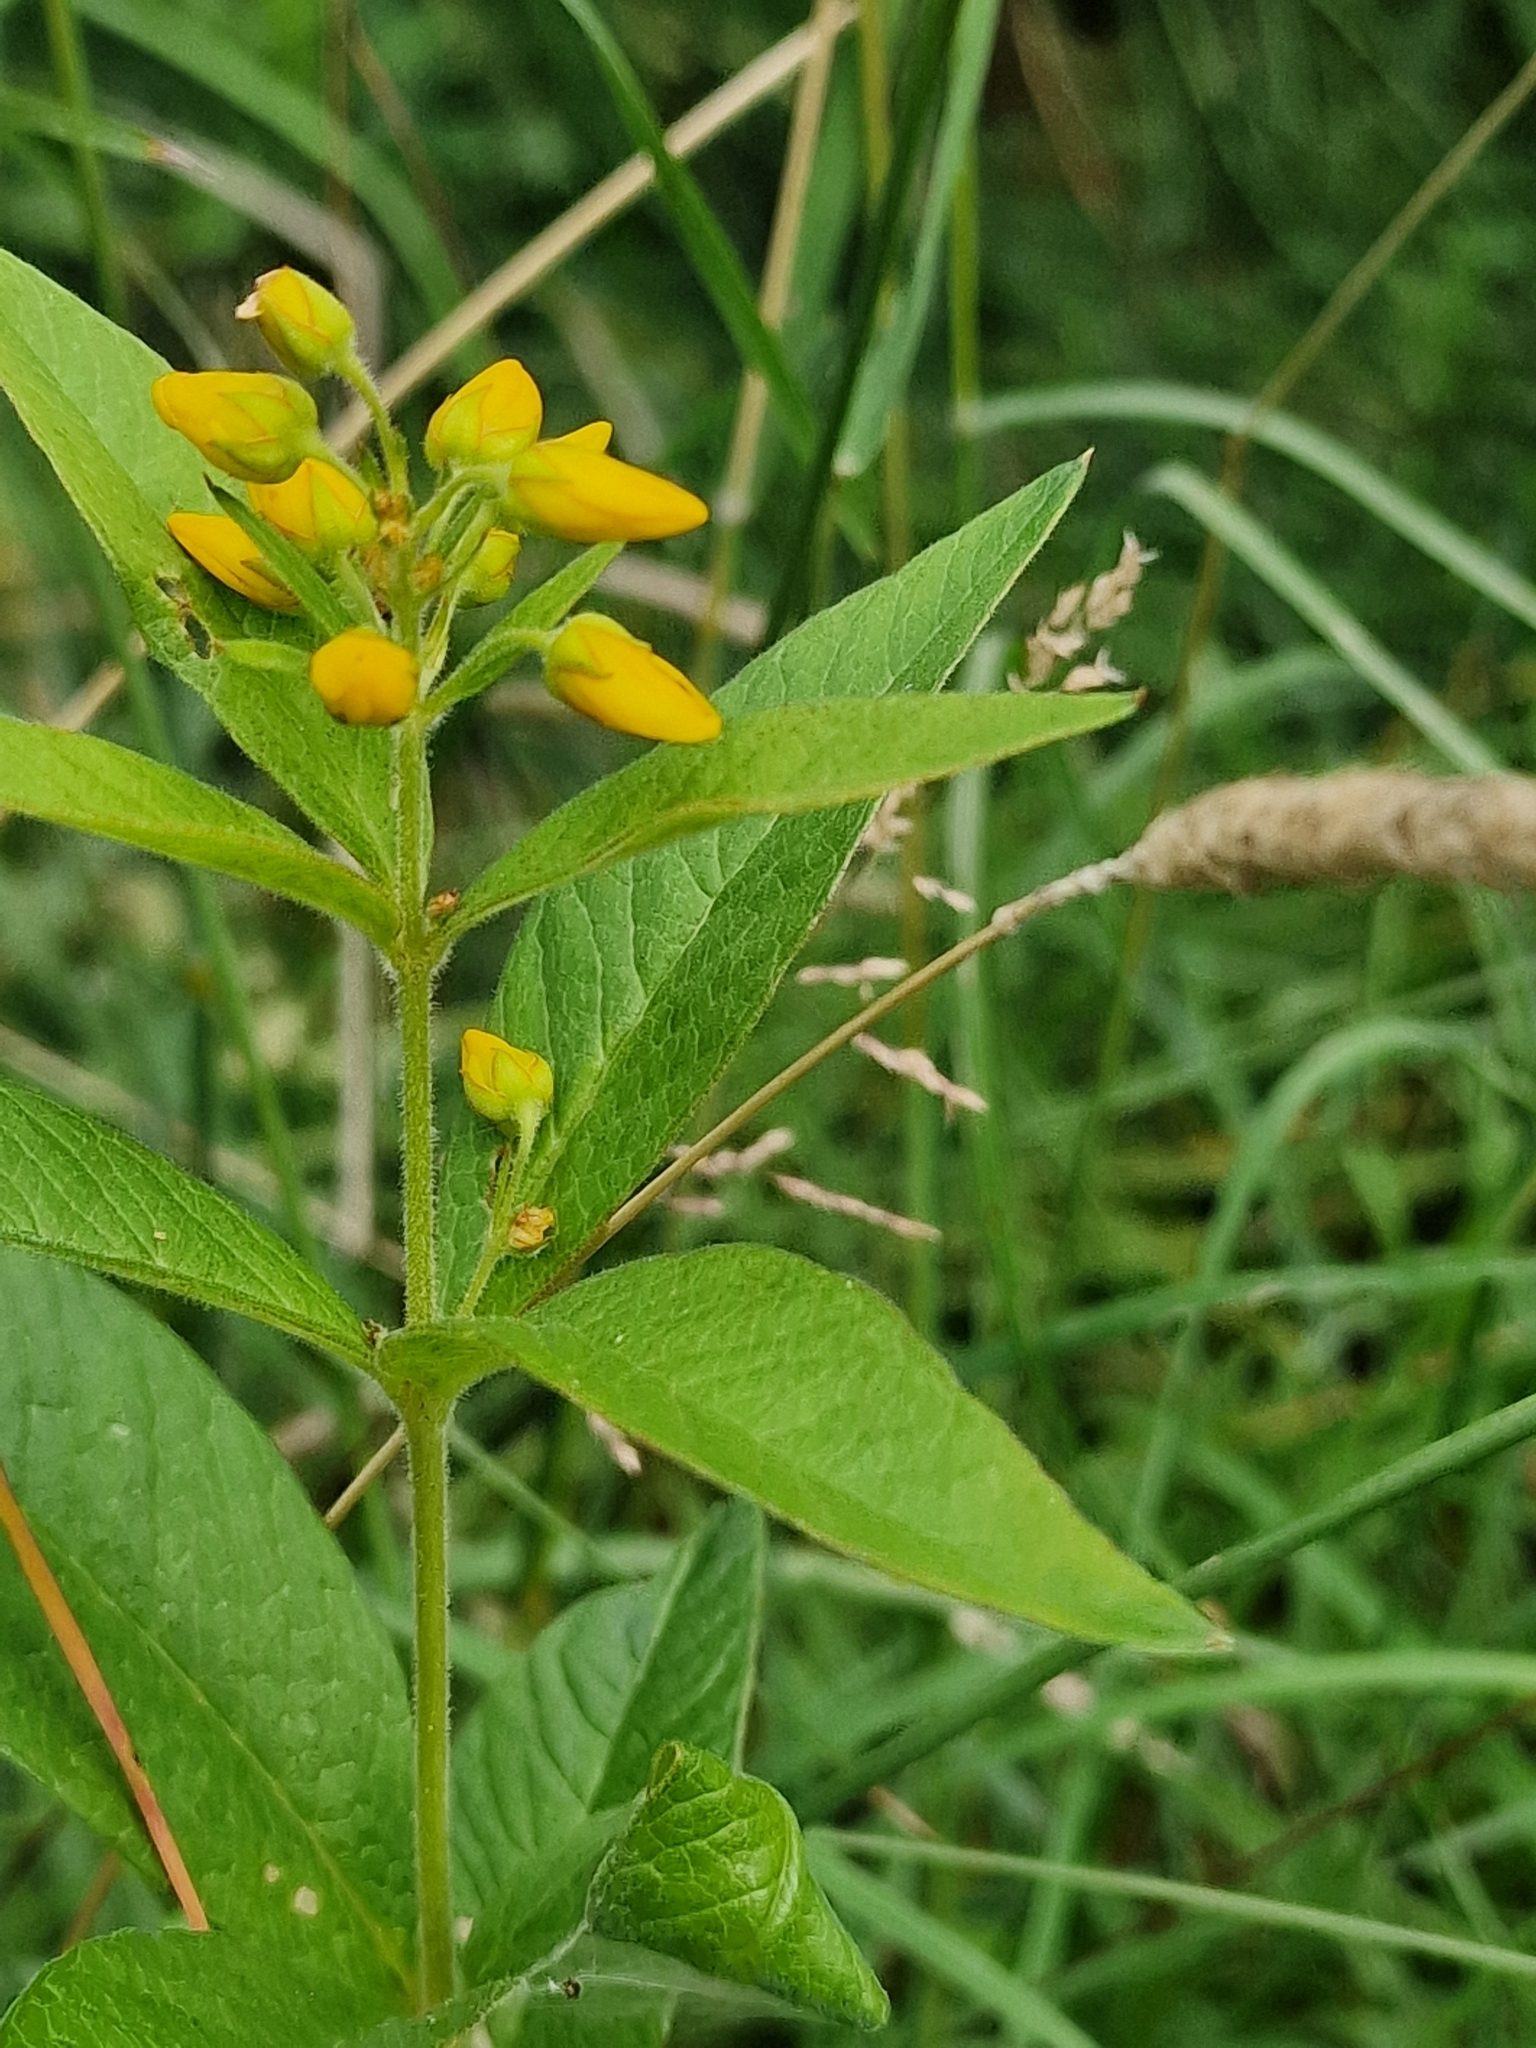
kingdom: Plantae
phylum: Tracheophyta
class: Magnoliopsida
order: Ericales
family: Primulaceae
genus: Lysimachia
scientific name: Lysimachia vulgaris
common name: Yellow loosestrife
